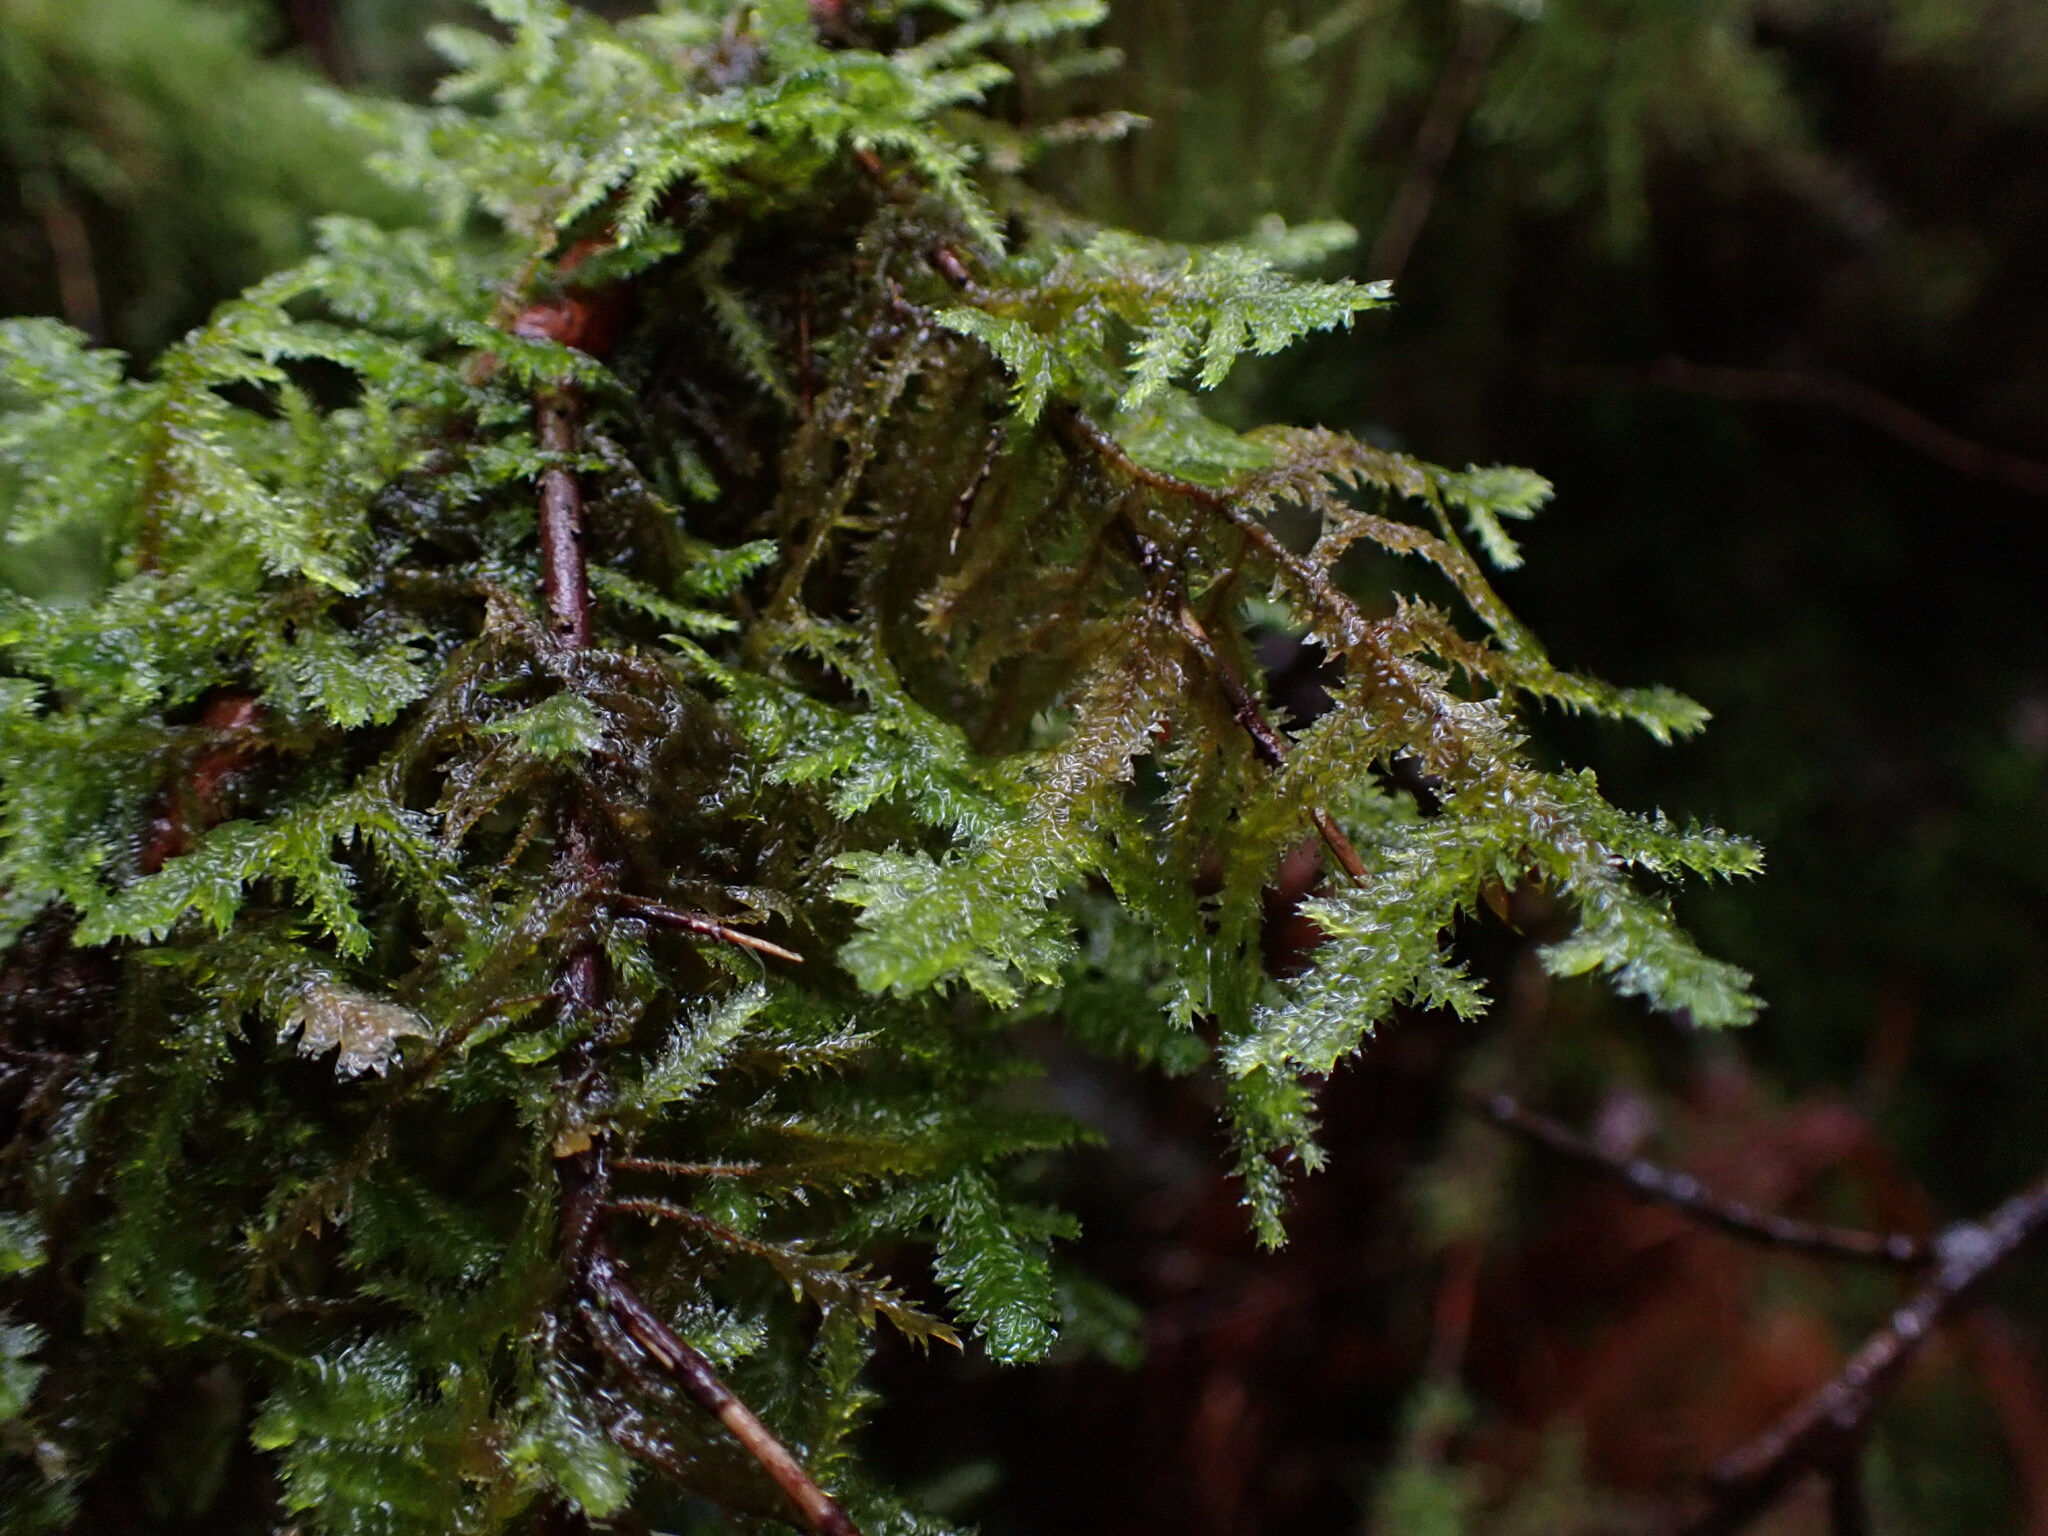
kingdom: Plantae
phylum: Bryophyta
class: Bryopsida
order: Hypnales
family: Neckeraceae
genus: Neckera
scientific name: Neckera douglasii
